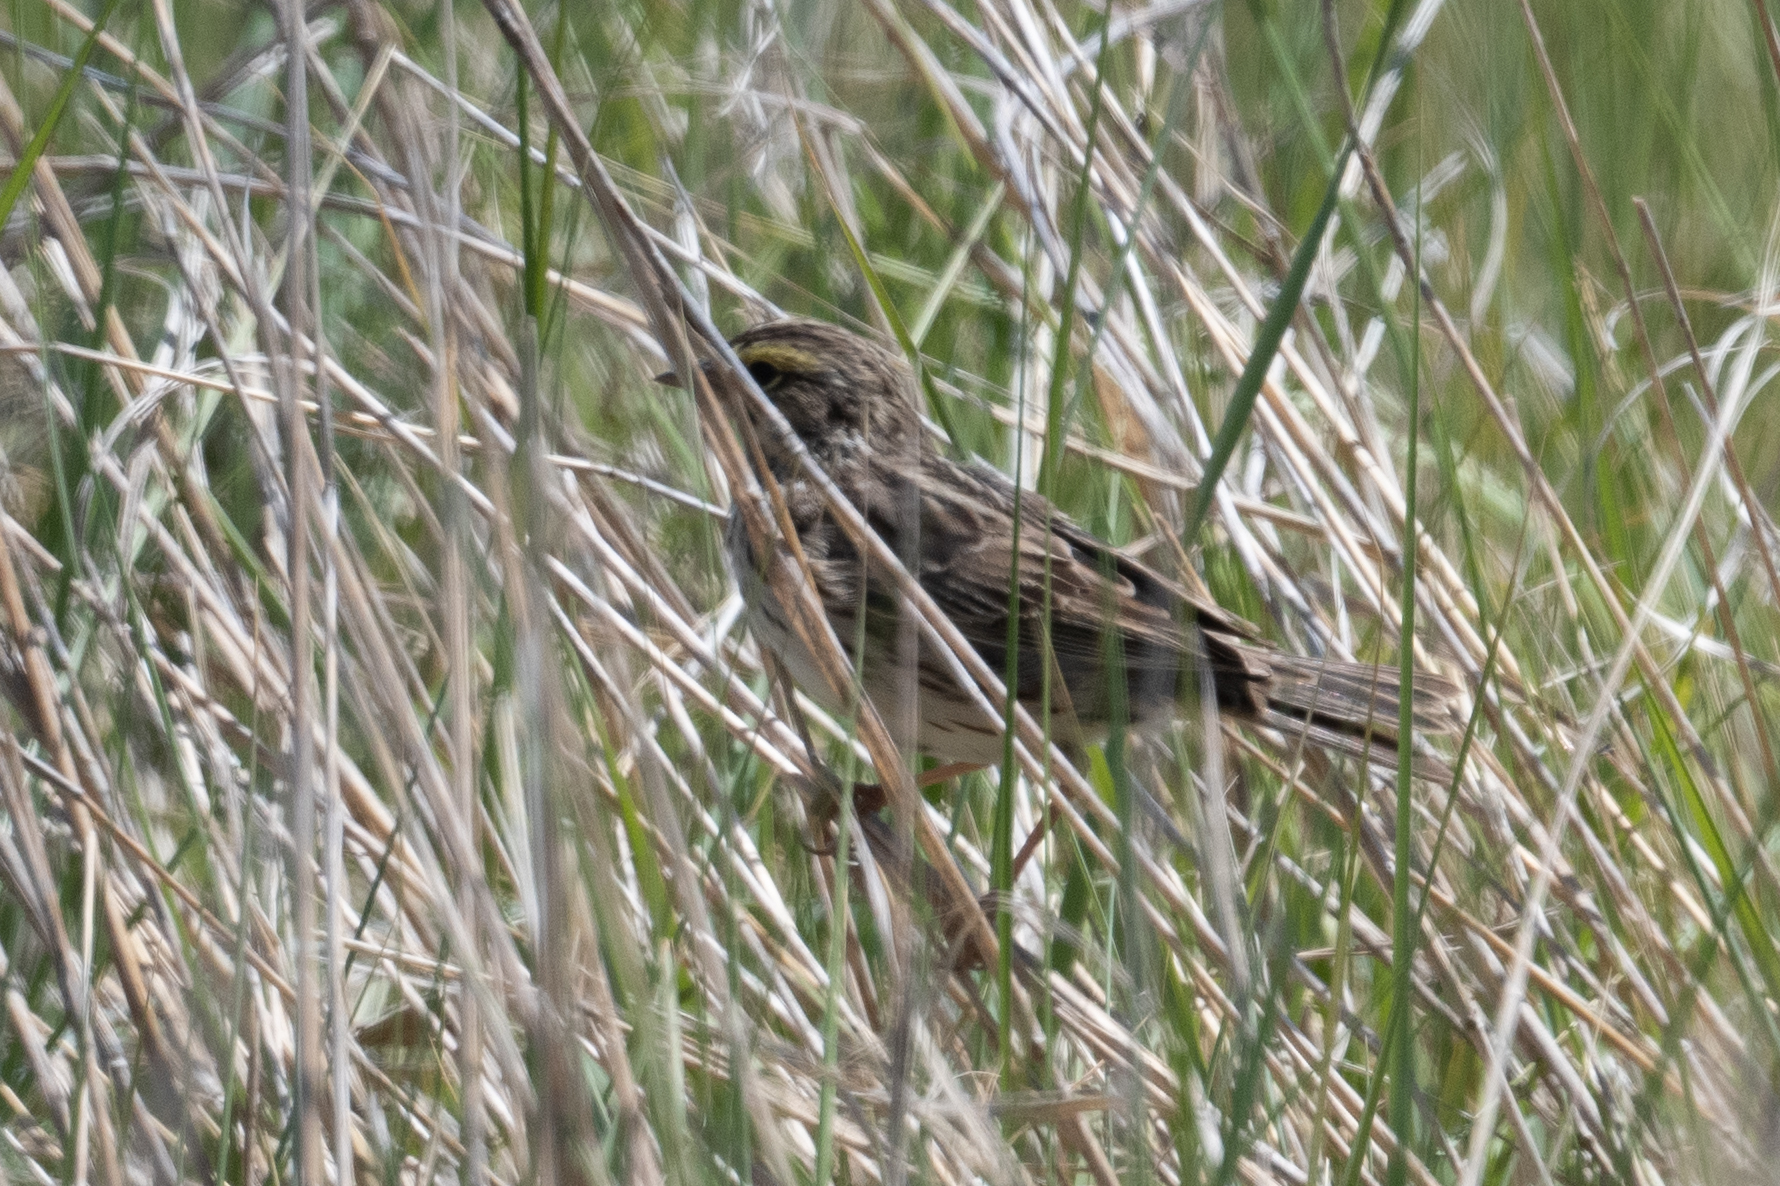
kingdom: Animalia
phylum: Chordata
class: Aves
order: Passeriformes
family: Passerellidae
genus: Passerculus
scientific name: Passerculus sandwichensis
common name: Savannah sparrow
